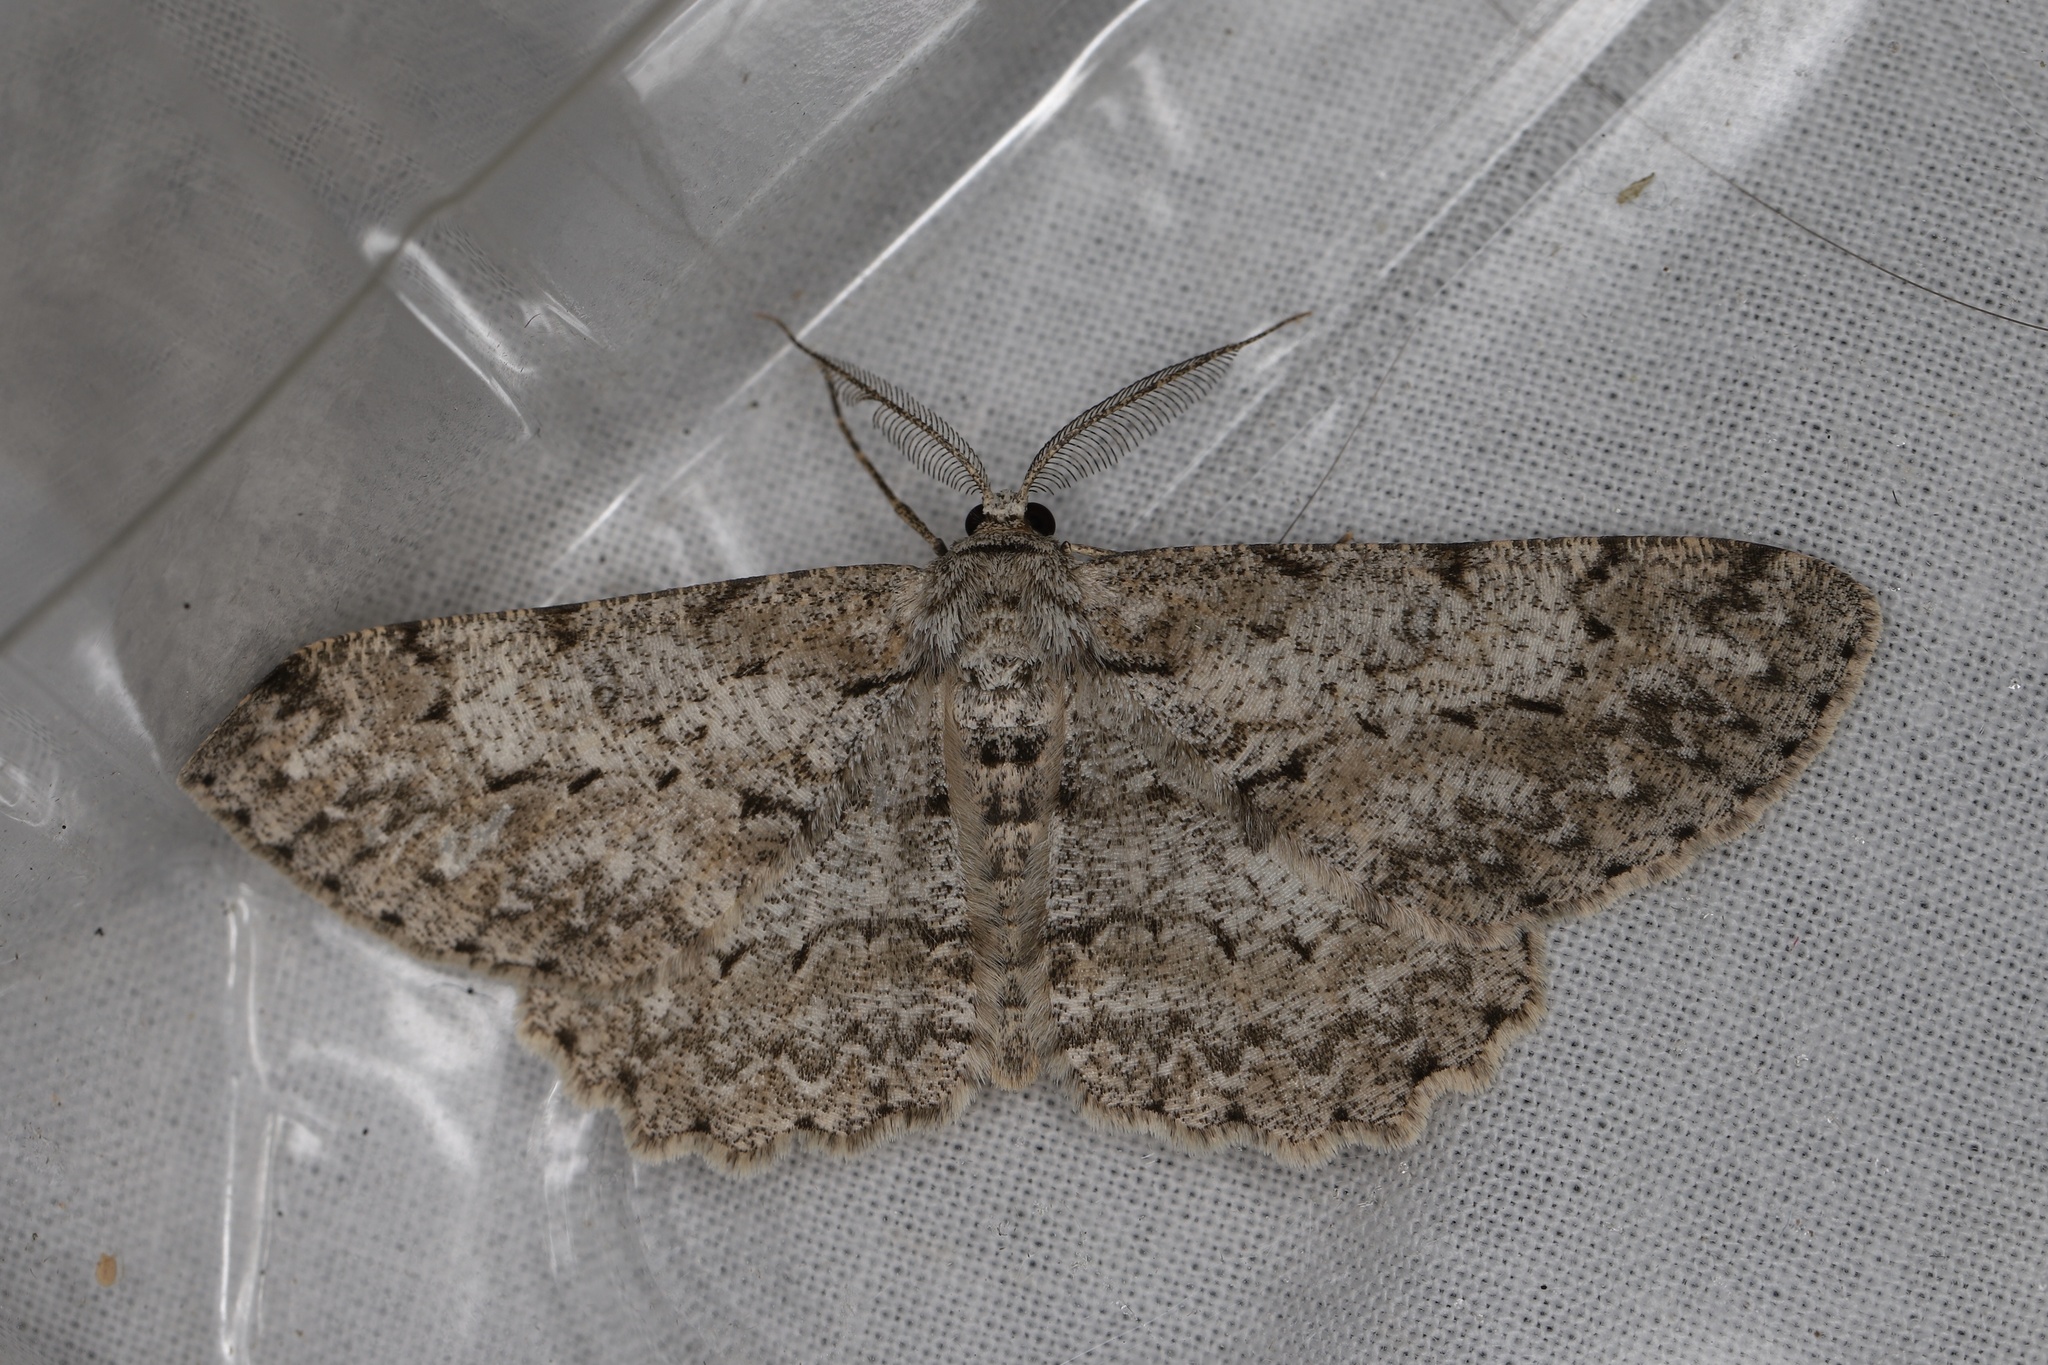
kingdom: Animalia
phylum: Arthropoda
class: Insecta
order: Lepidoptera
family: Geometridae
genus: Hypomecis
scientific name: Hypomecis punctinalis
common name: Pale oak beauty
